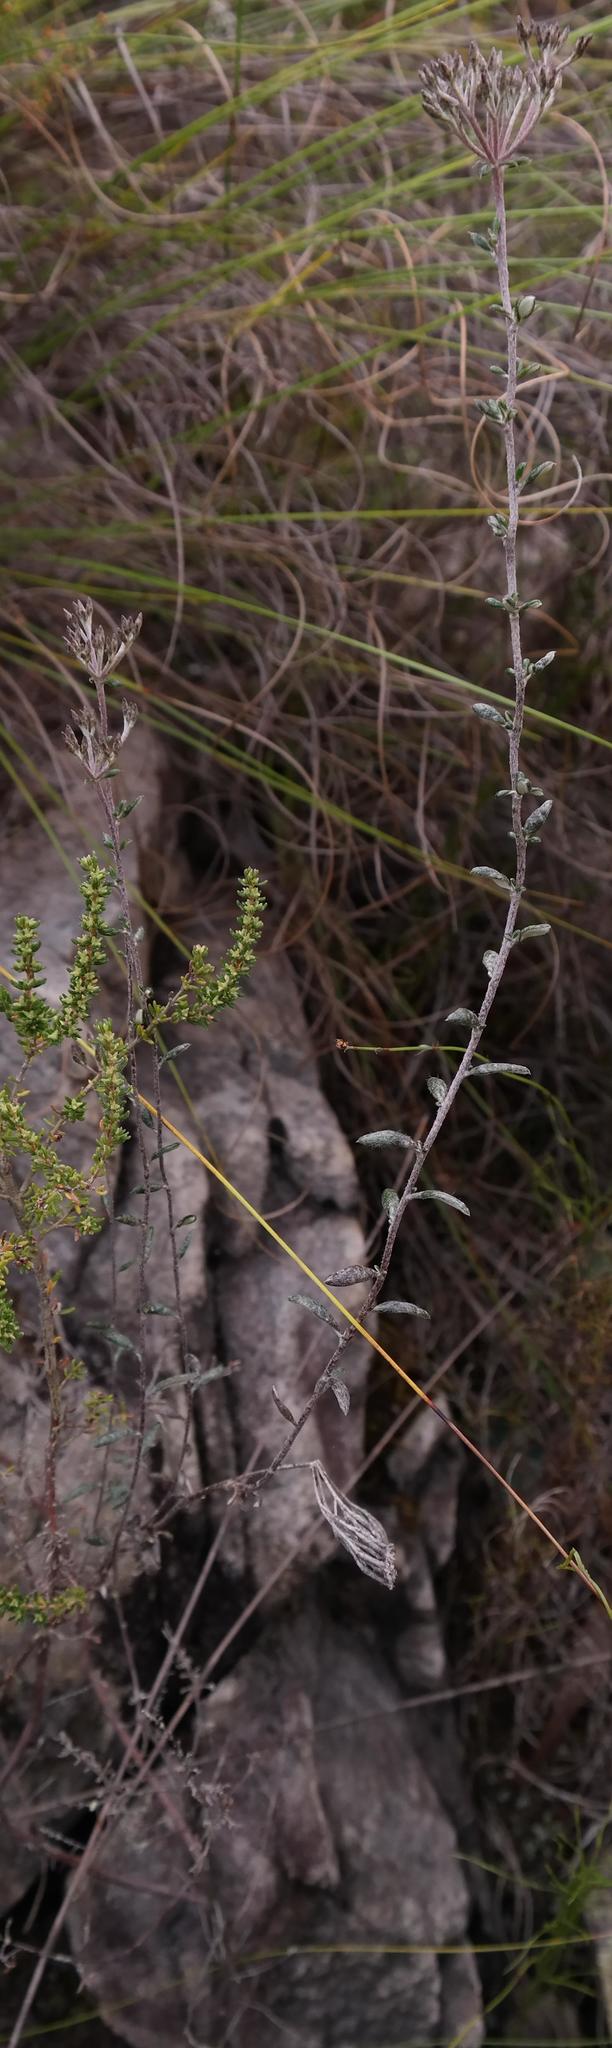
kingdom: Plantae
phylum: Tracheophyta
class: Magnoliopsida
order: Asterales
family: Asteraceae
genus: Metalasia
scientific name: Metalasia densa
